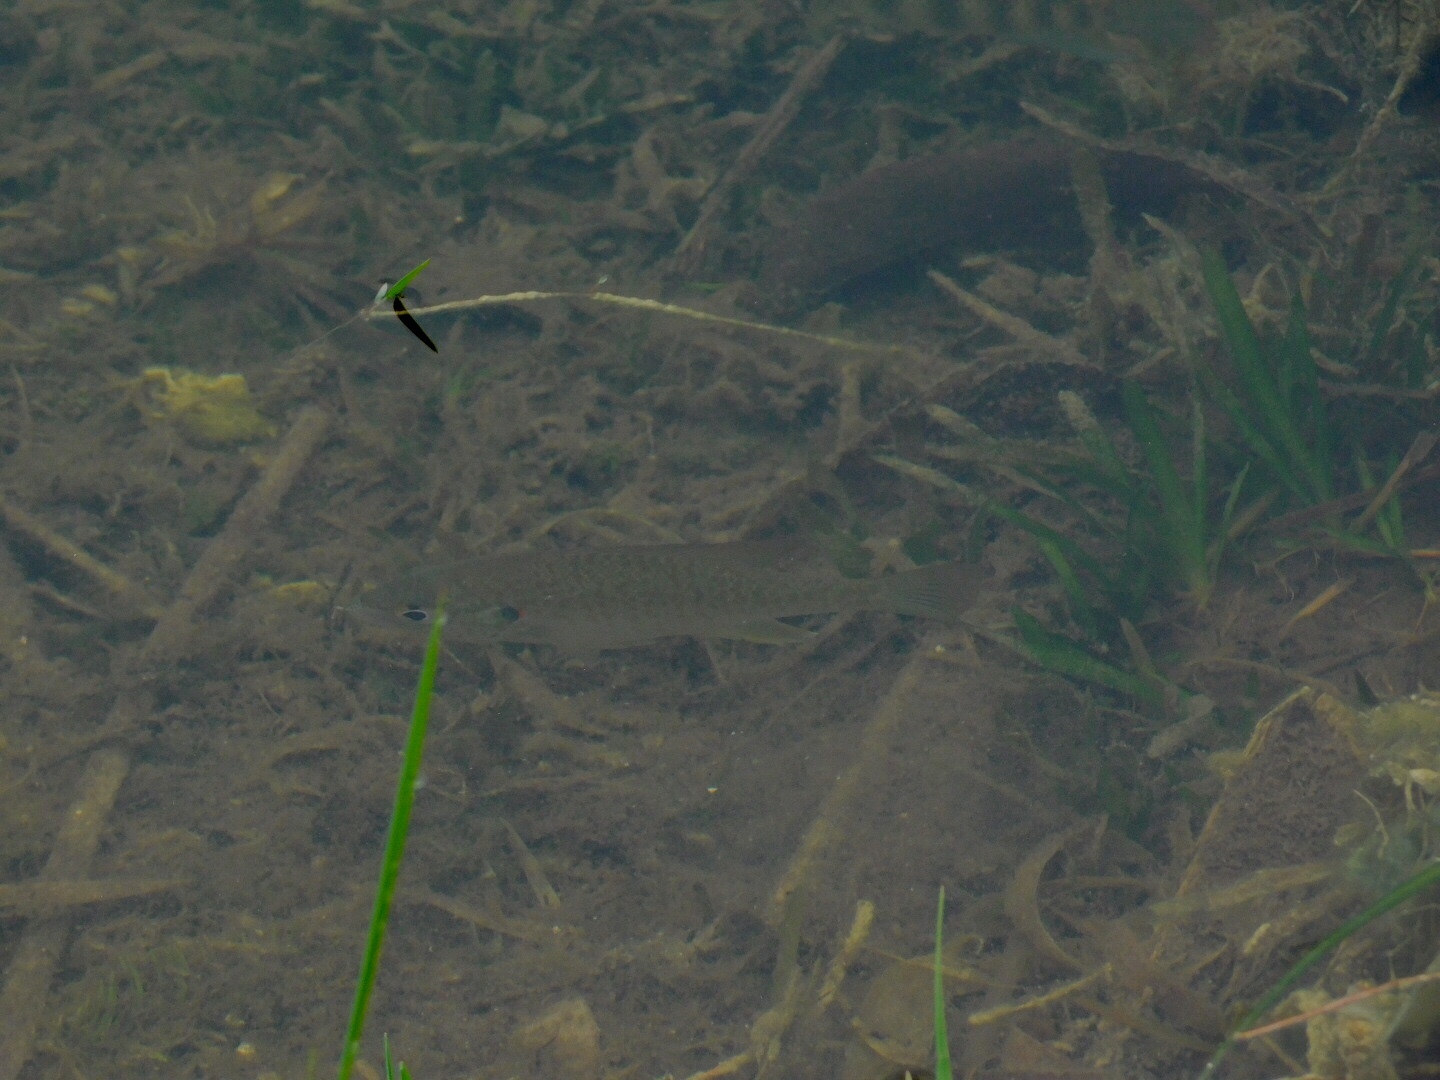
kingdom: Animalia
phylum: Chordata
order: Perciformes
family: Centrarchidae
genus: Lepomis
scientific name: Lepomis microlophus
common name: Redear sunfish
